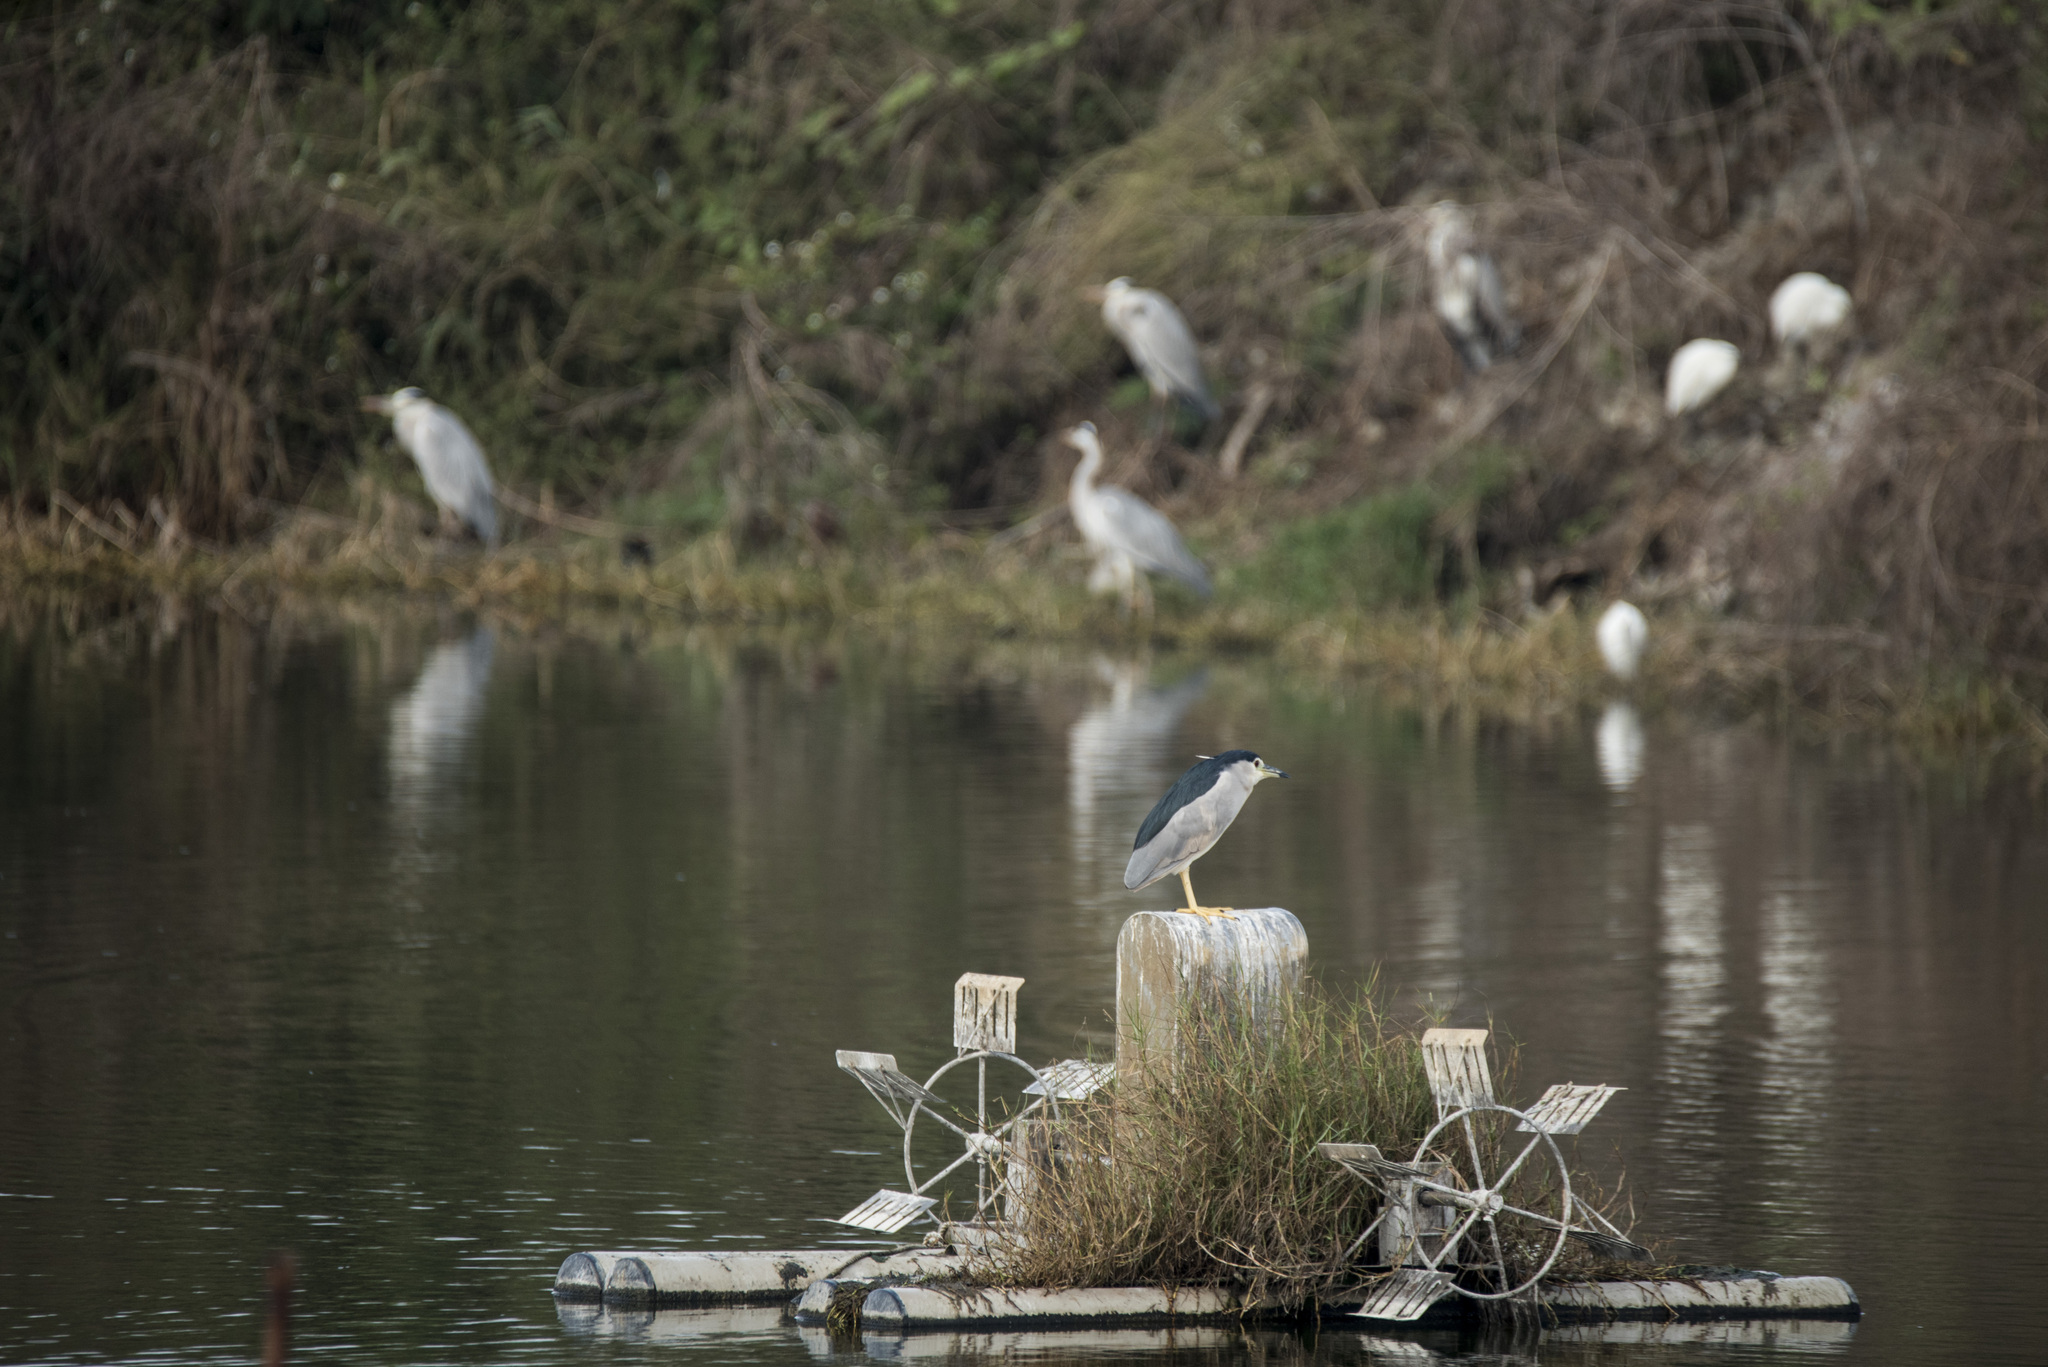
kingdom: Animalia
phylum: Chordata
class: Aves
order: Pelecaniformes
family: Ardeidae
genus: Nycticorax
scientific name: Nycticorax nycticorax
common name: Black-crowned night heron
